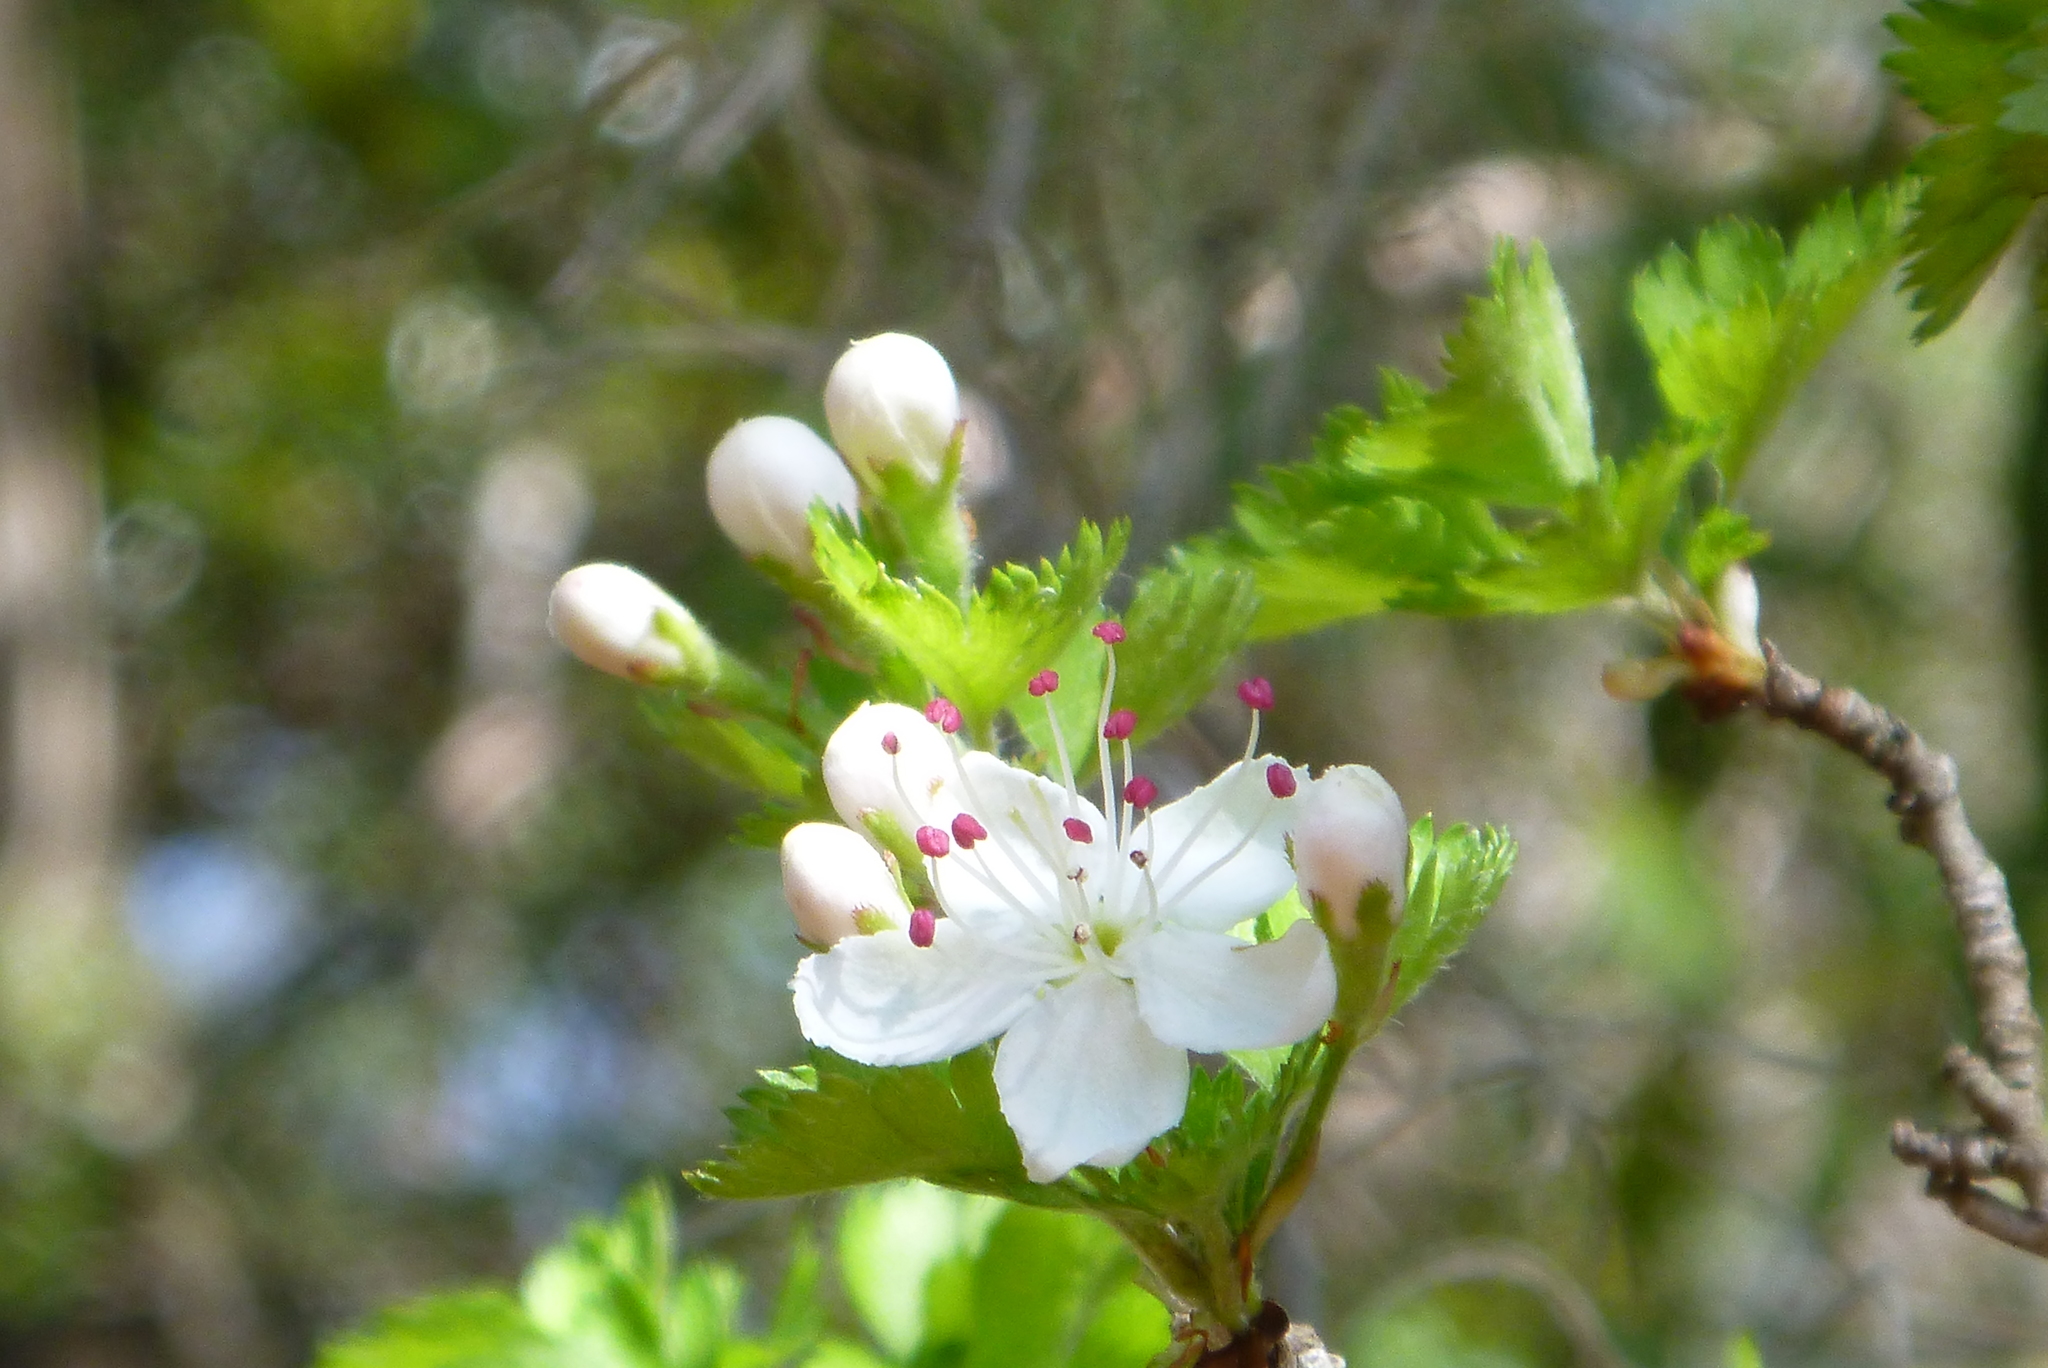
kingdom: Plantae
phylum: Tracheophyta
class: Magnoliopsida
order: Rosales
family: Rosaceae
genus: Crataegus
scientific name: Crataegus marshallii
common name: Parsley-hawthorn
